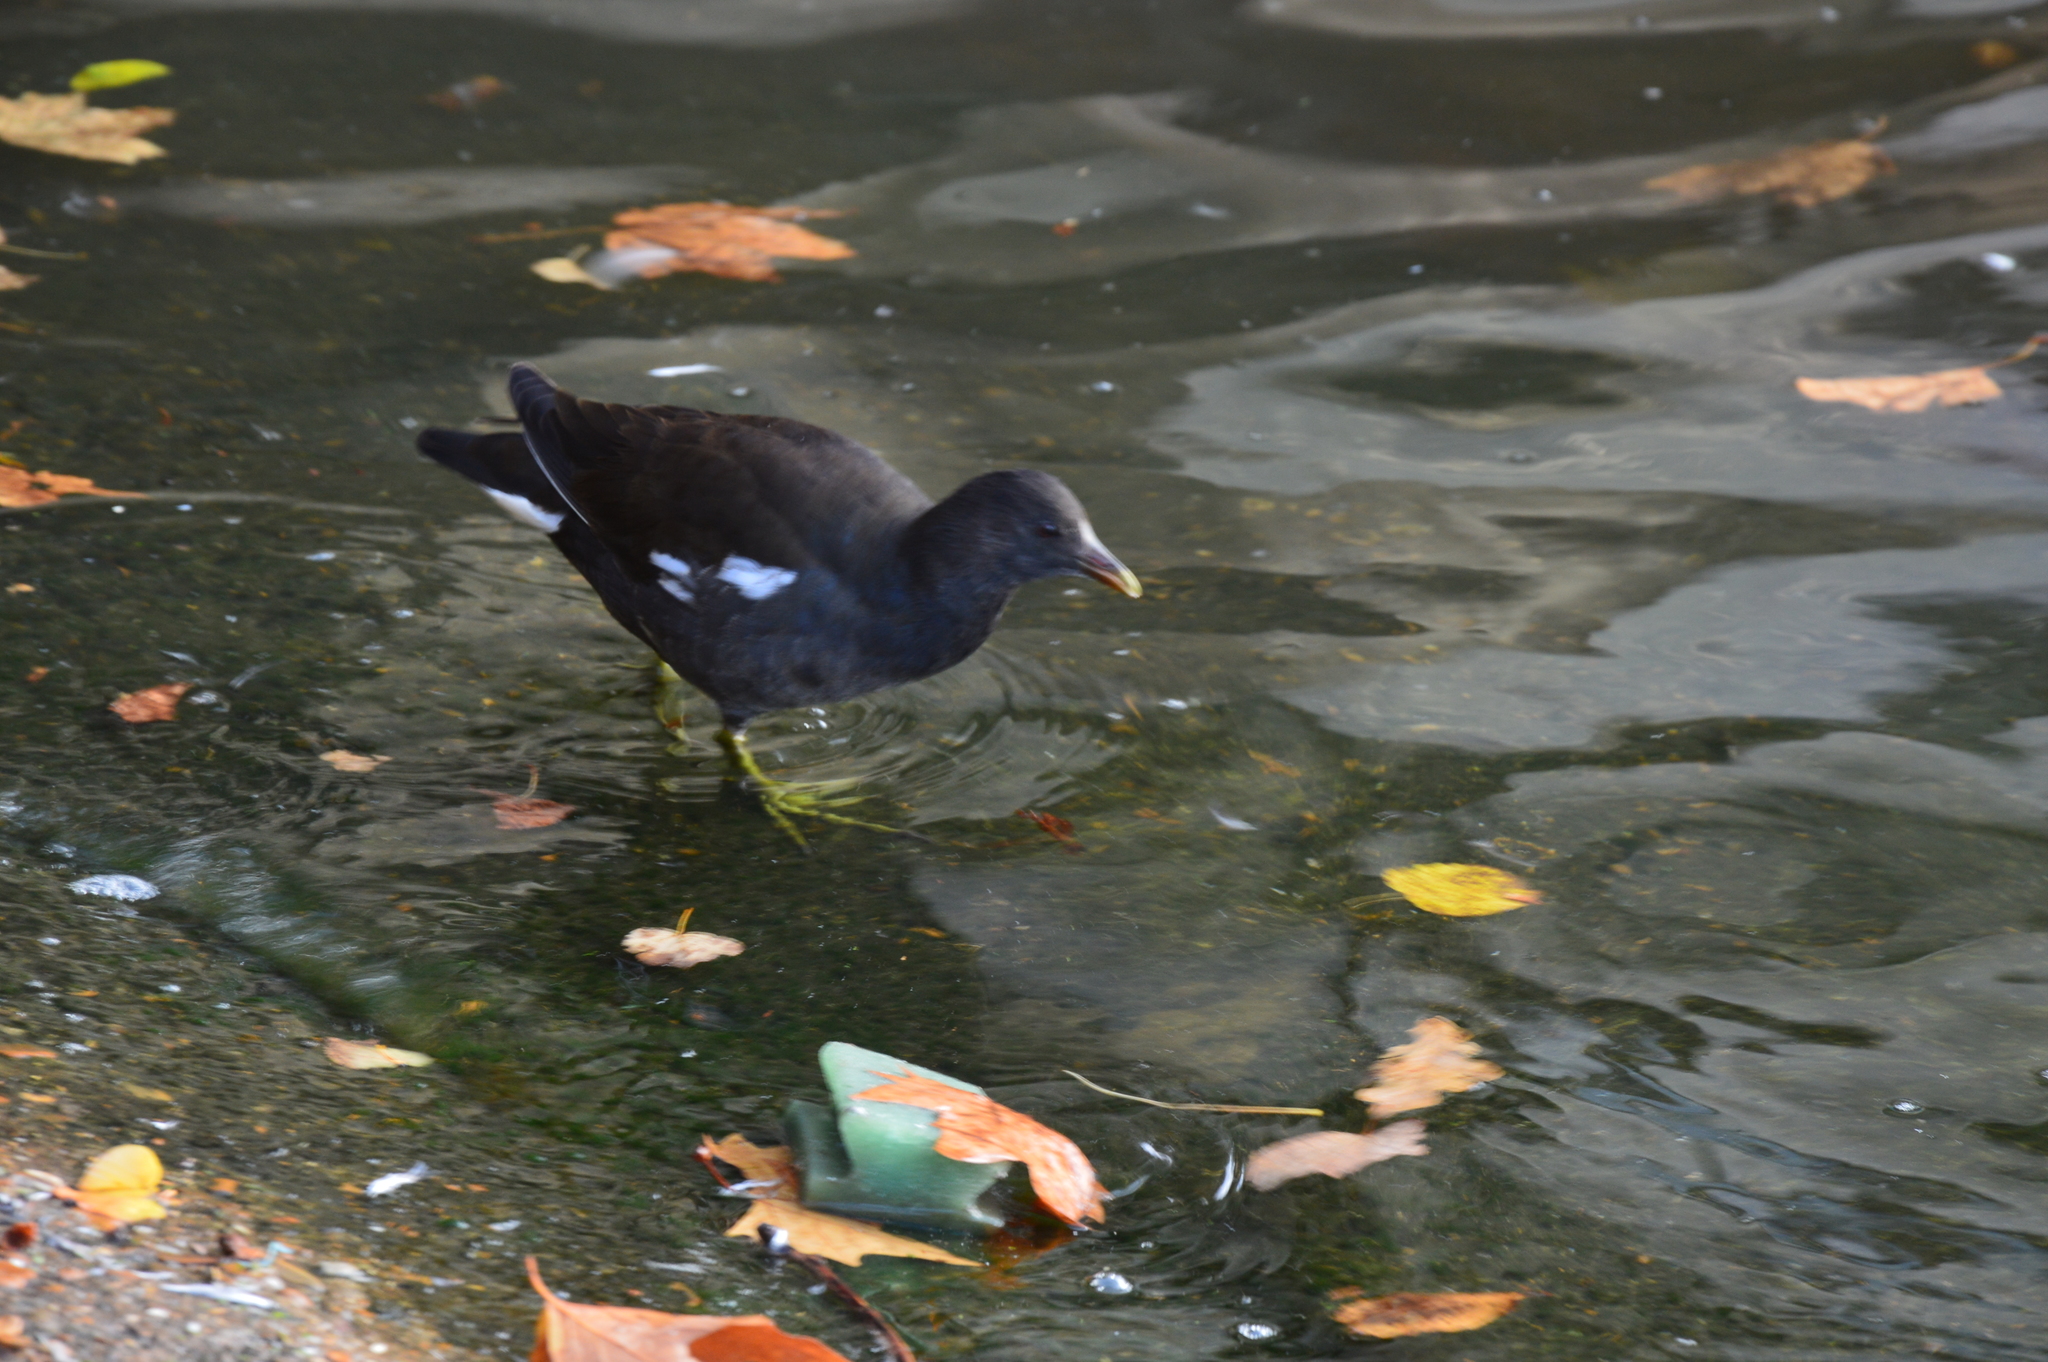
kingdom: Animalia
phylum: Chordata
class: Aves
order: Gruiformes
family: Rallidae
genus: Gallinula
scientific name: Gallinula chloropus
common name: Common moorhen
